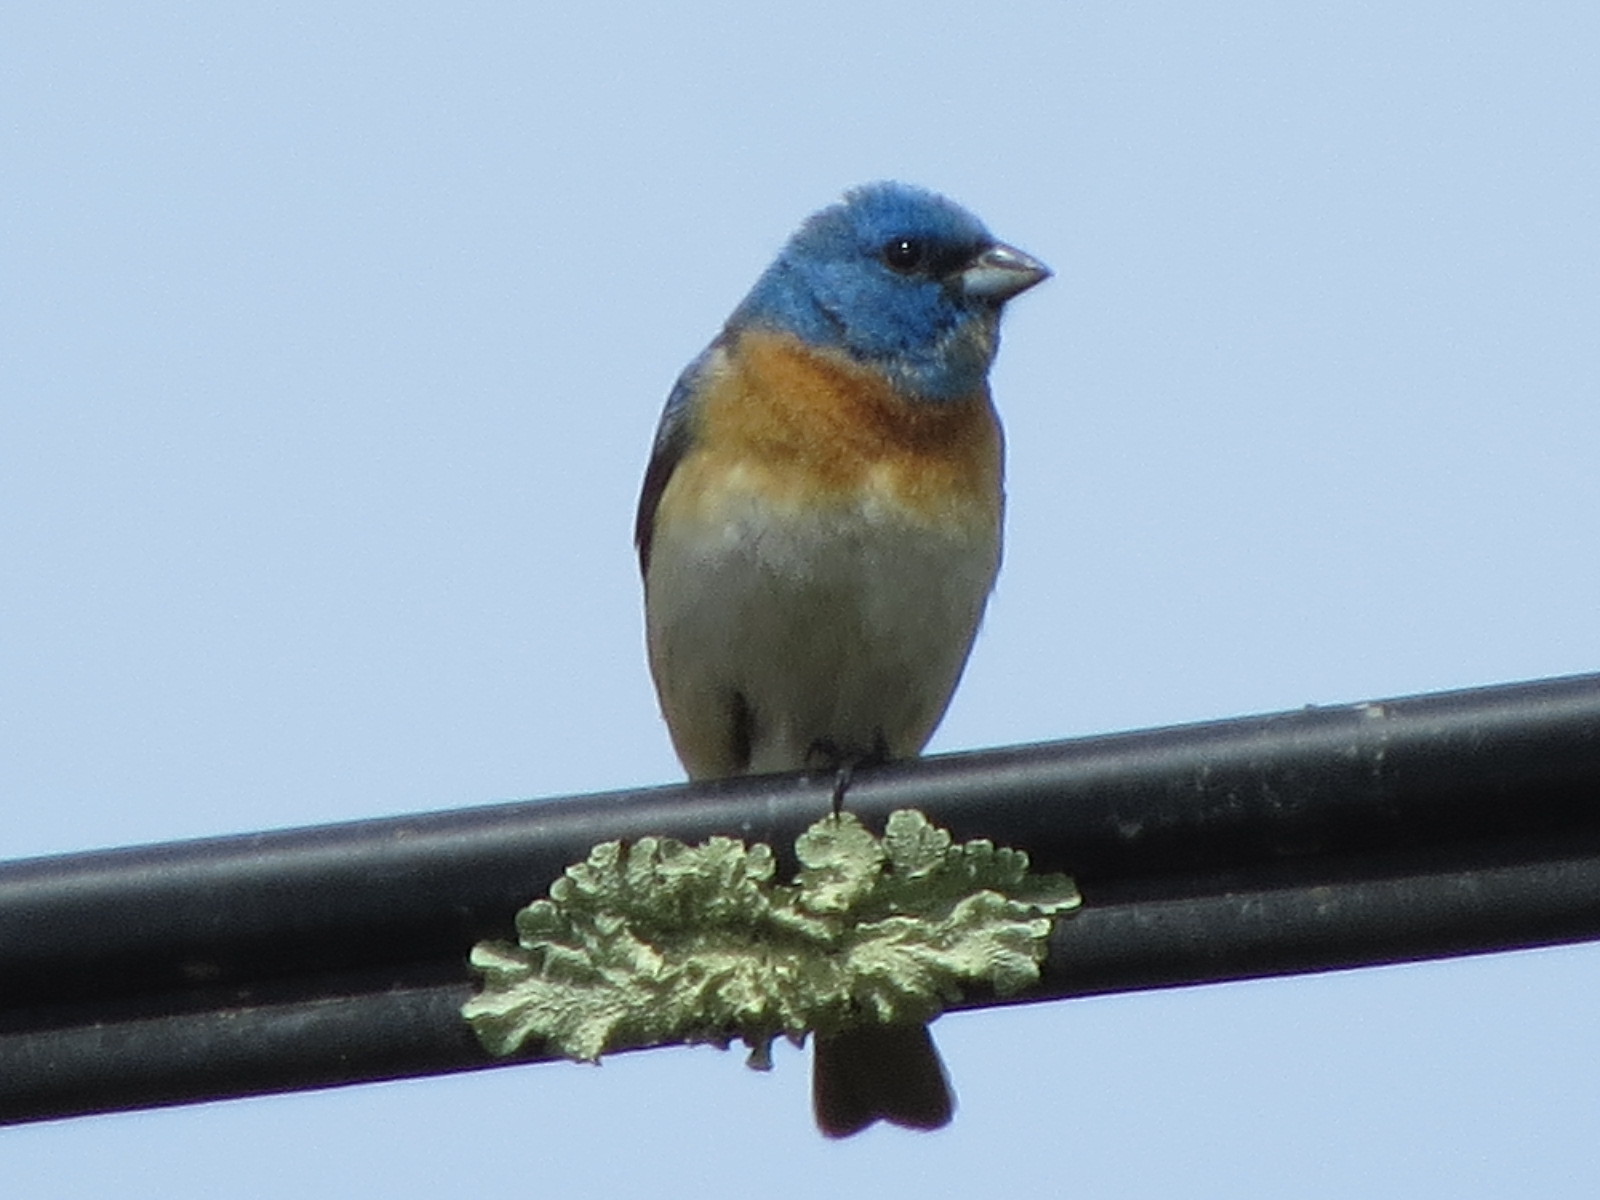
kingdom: Animalia
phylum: Chordata
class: Aves
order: Passeriformes
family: Cardinalidae
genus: Passerina
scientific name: Passerina amoena
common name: Lazuli bunting
